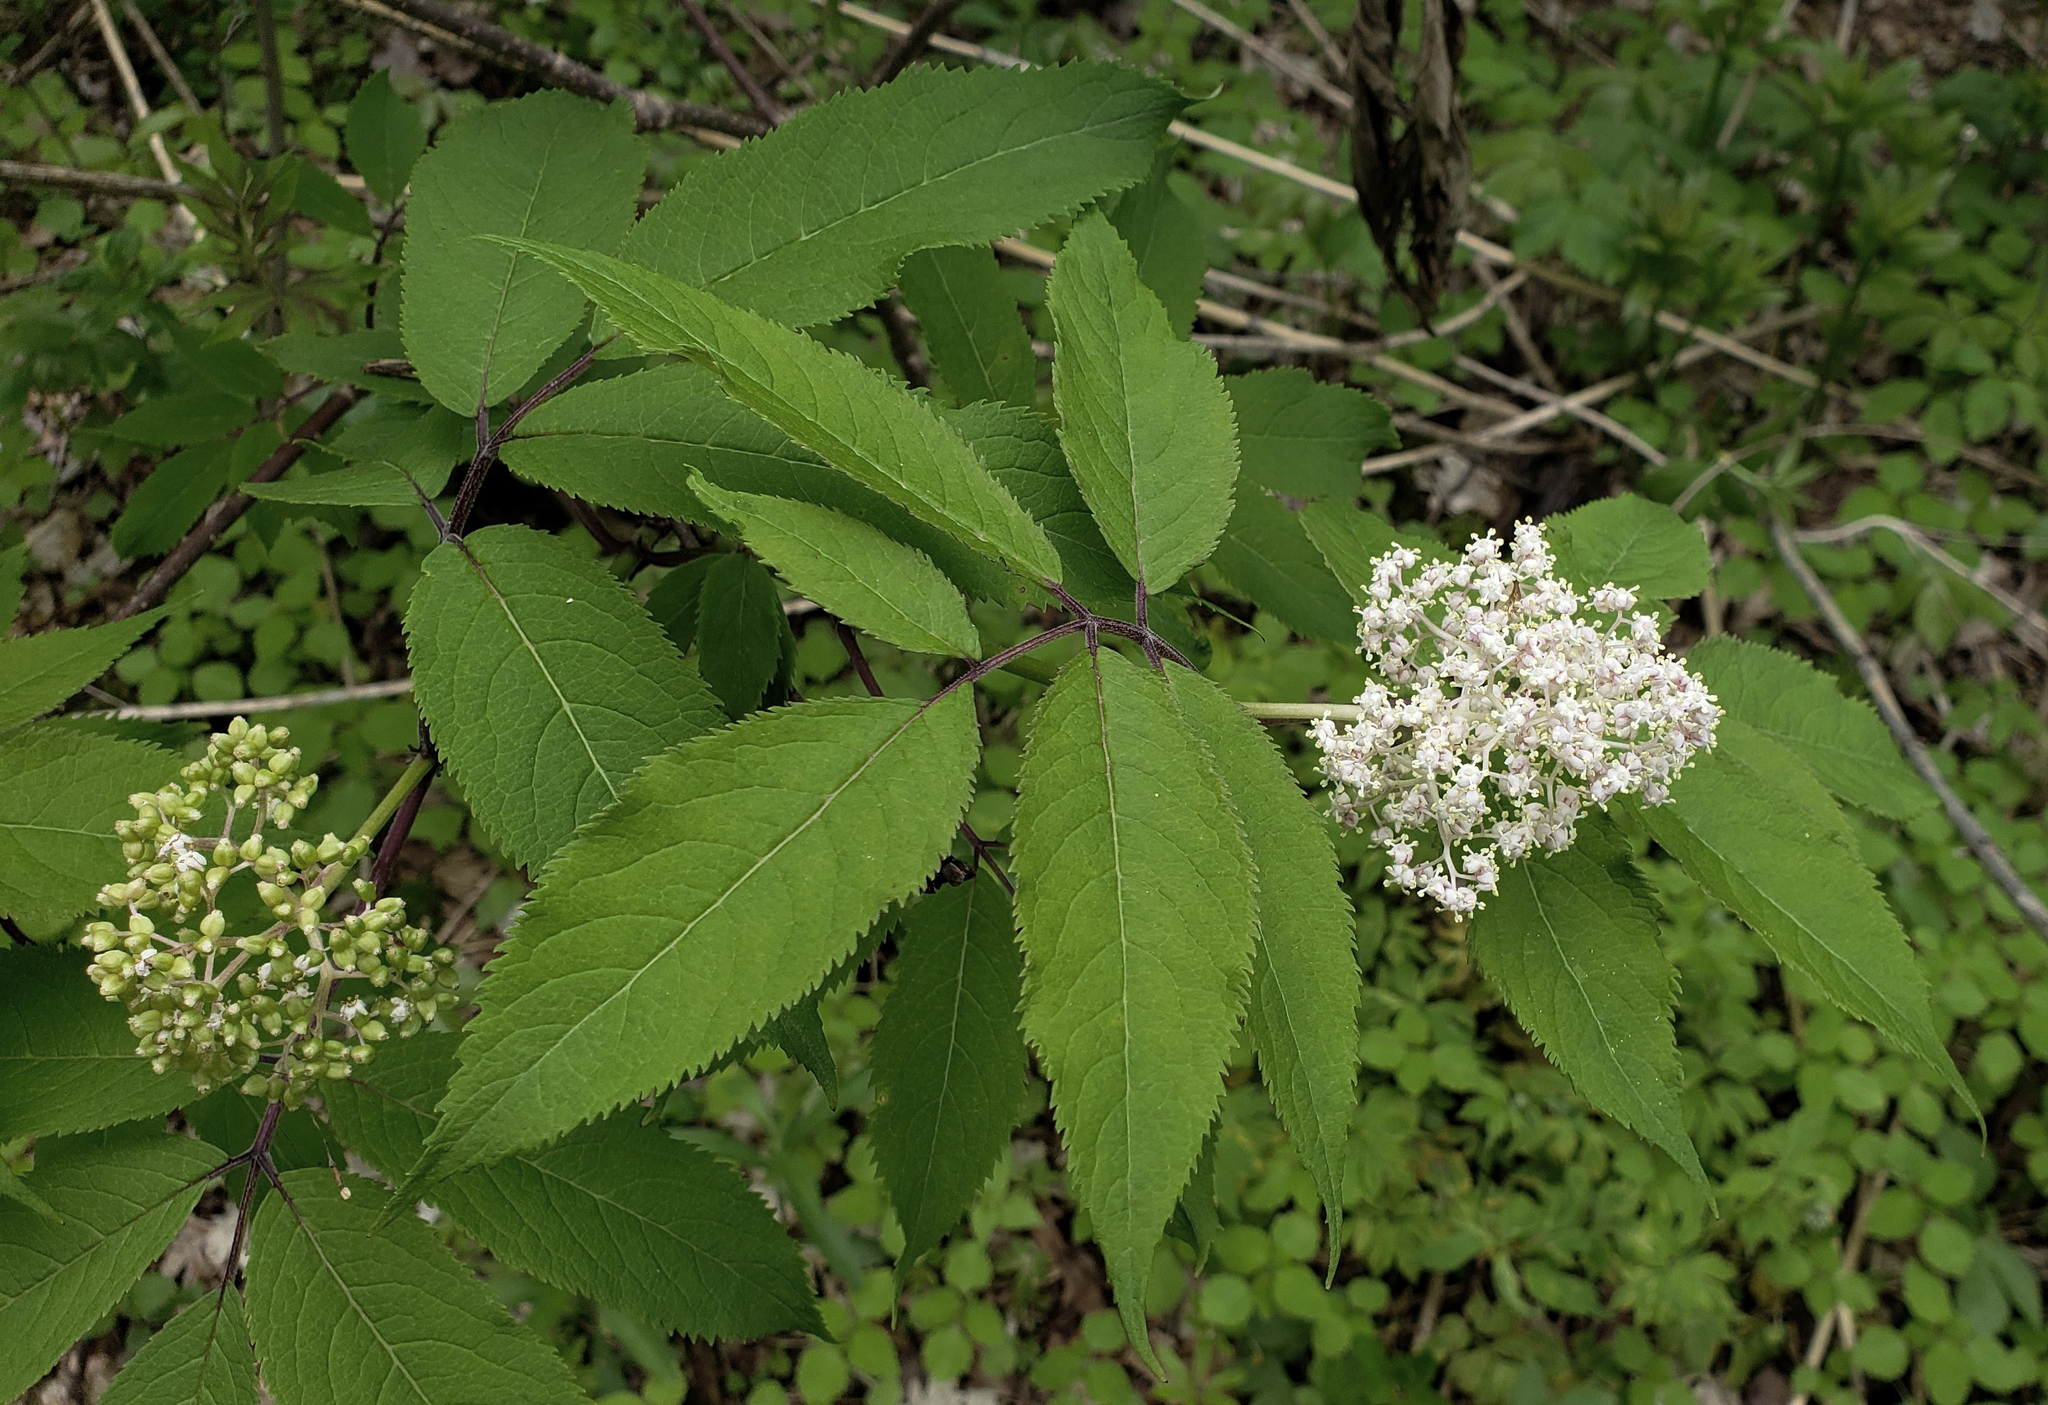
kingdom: Plantae
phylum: Tracheophyta
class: Magnoliopsida
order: Dipsacales
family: Viburnaceae
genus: Sambucus
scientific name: Sambucus racemosa
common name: Red-berried elder
